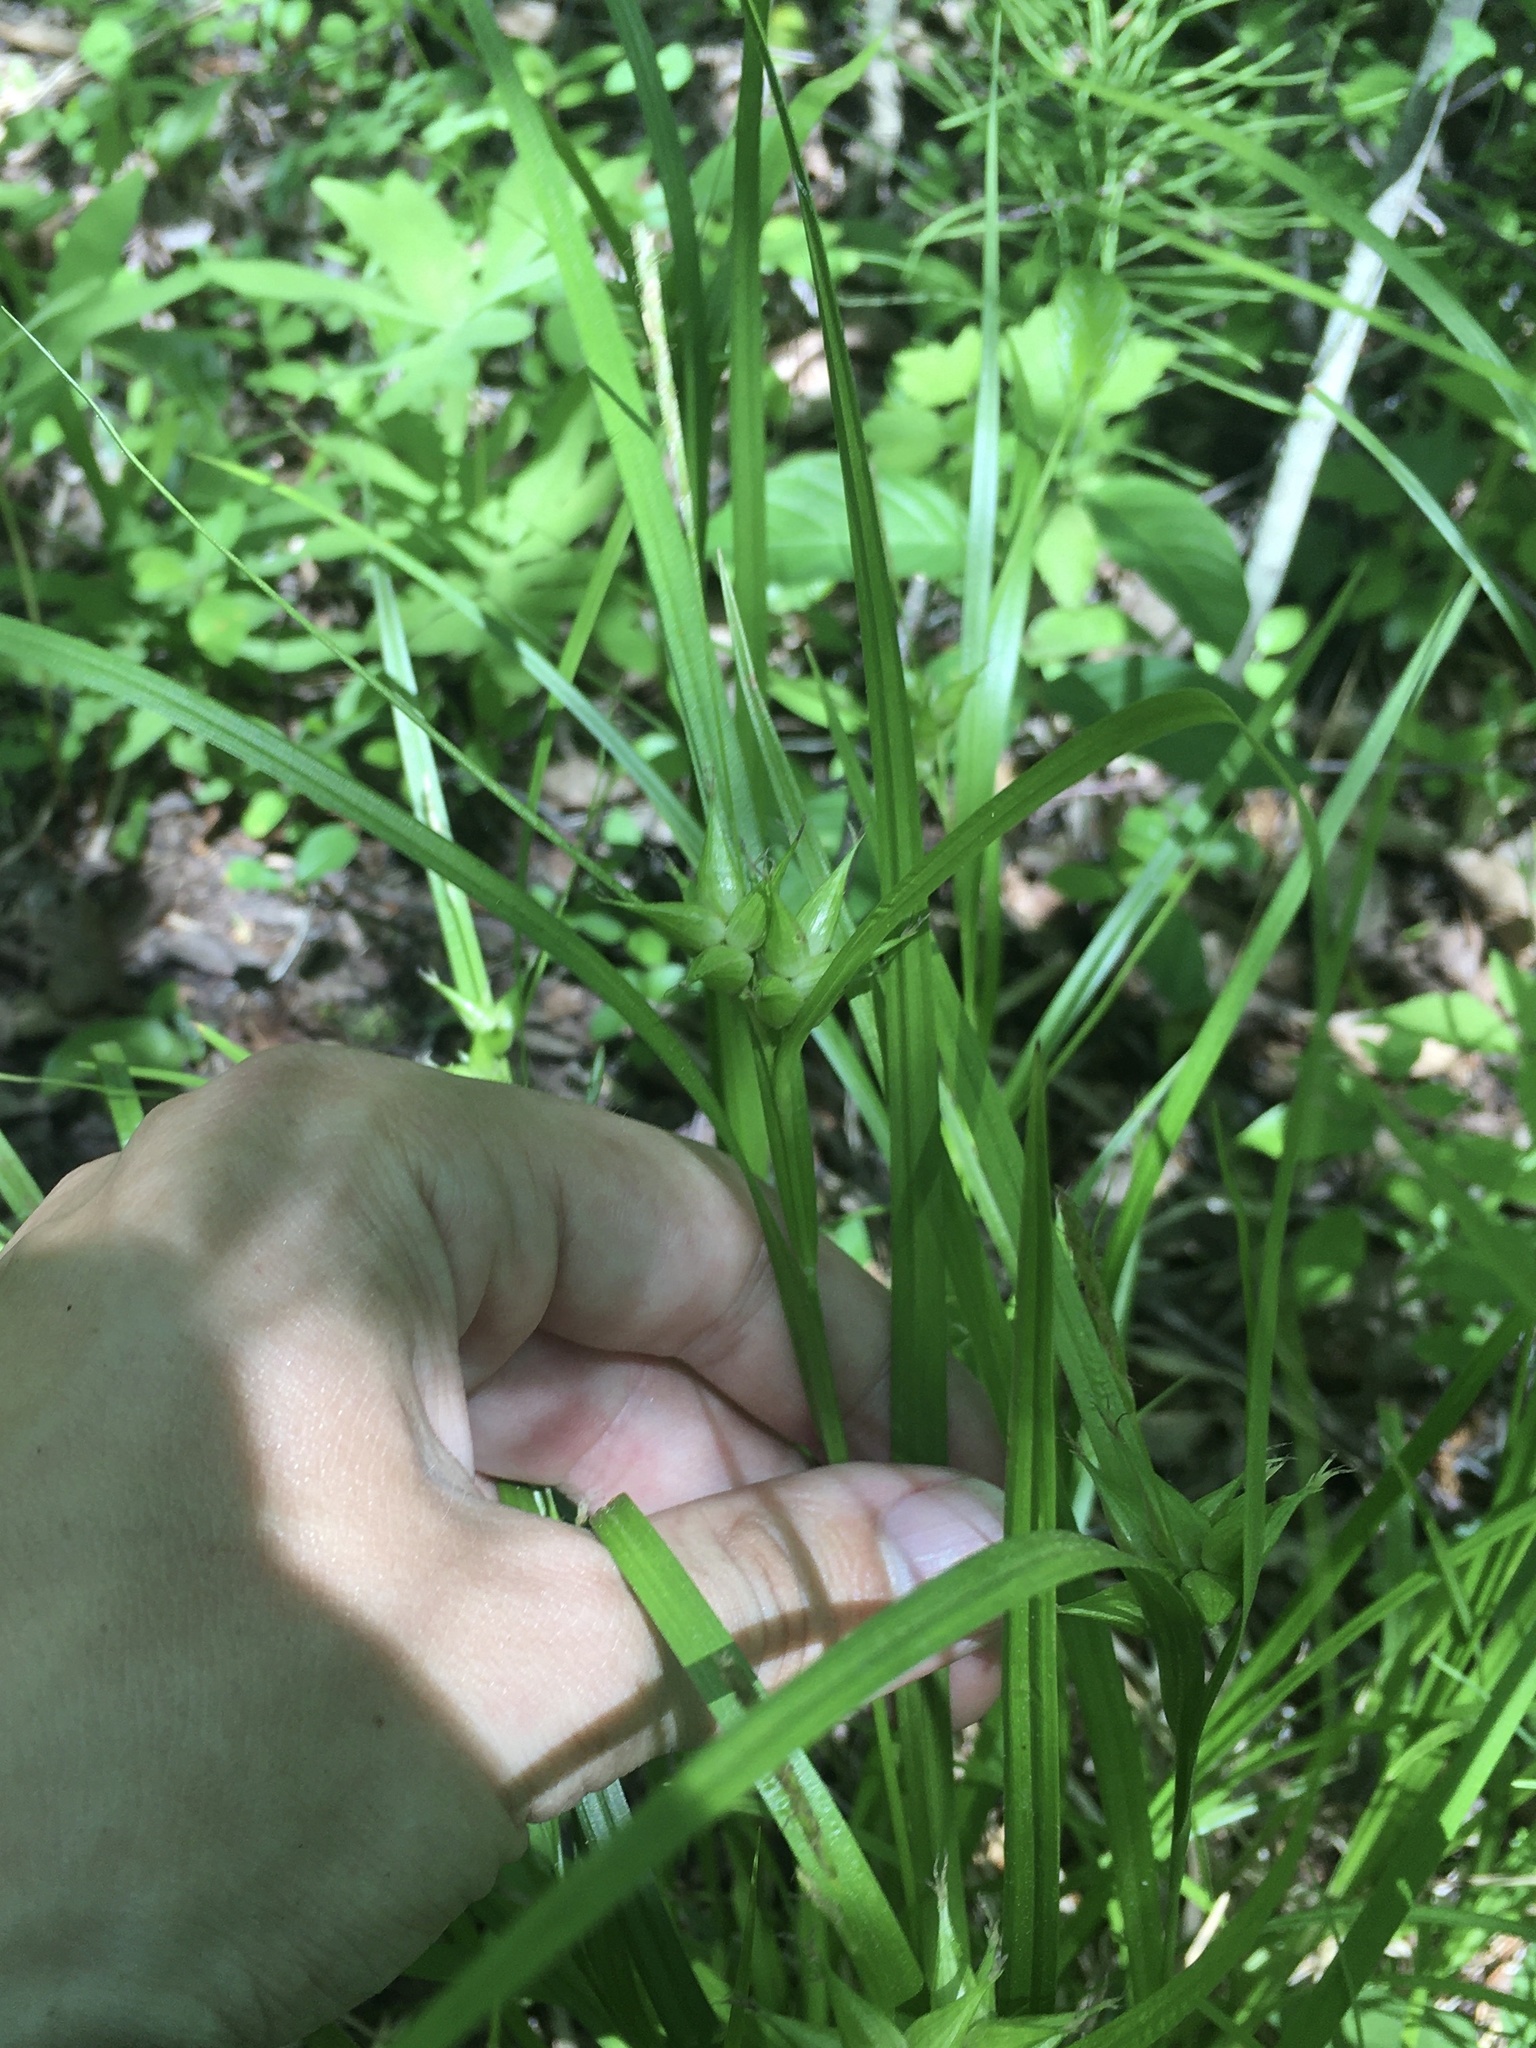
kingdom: Plantae
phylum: Tracheophyta
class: Liliopsida
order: Poales
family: Cyperaceae
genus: Carex
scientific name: Carex intumescens
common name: Greater bladder sedge
